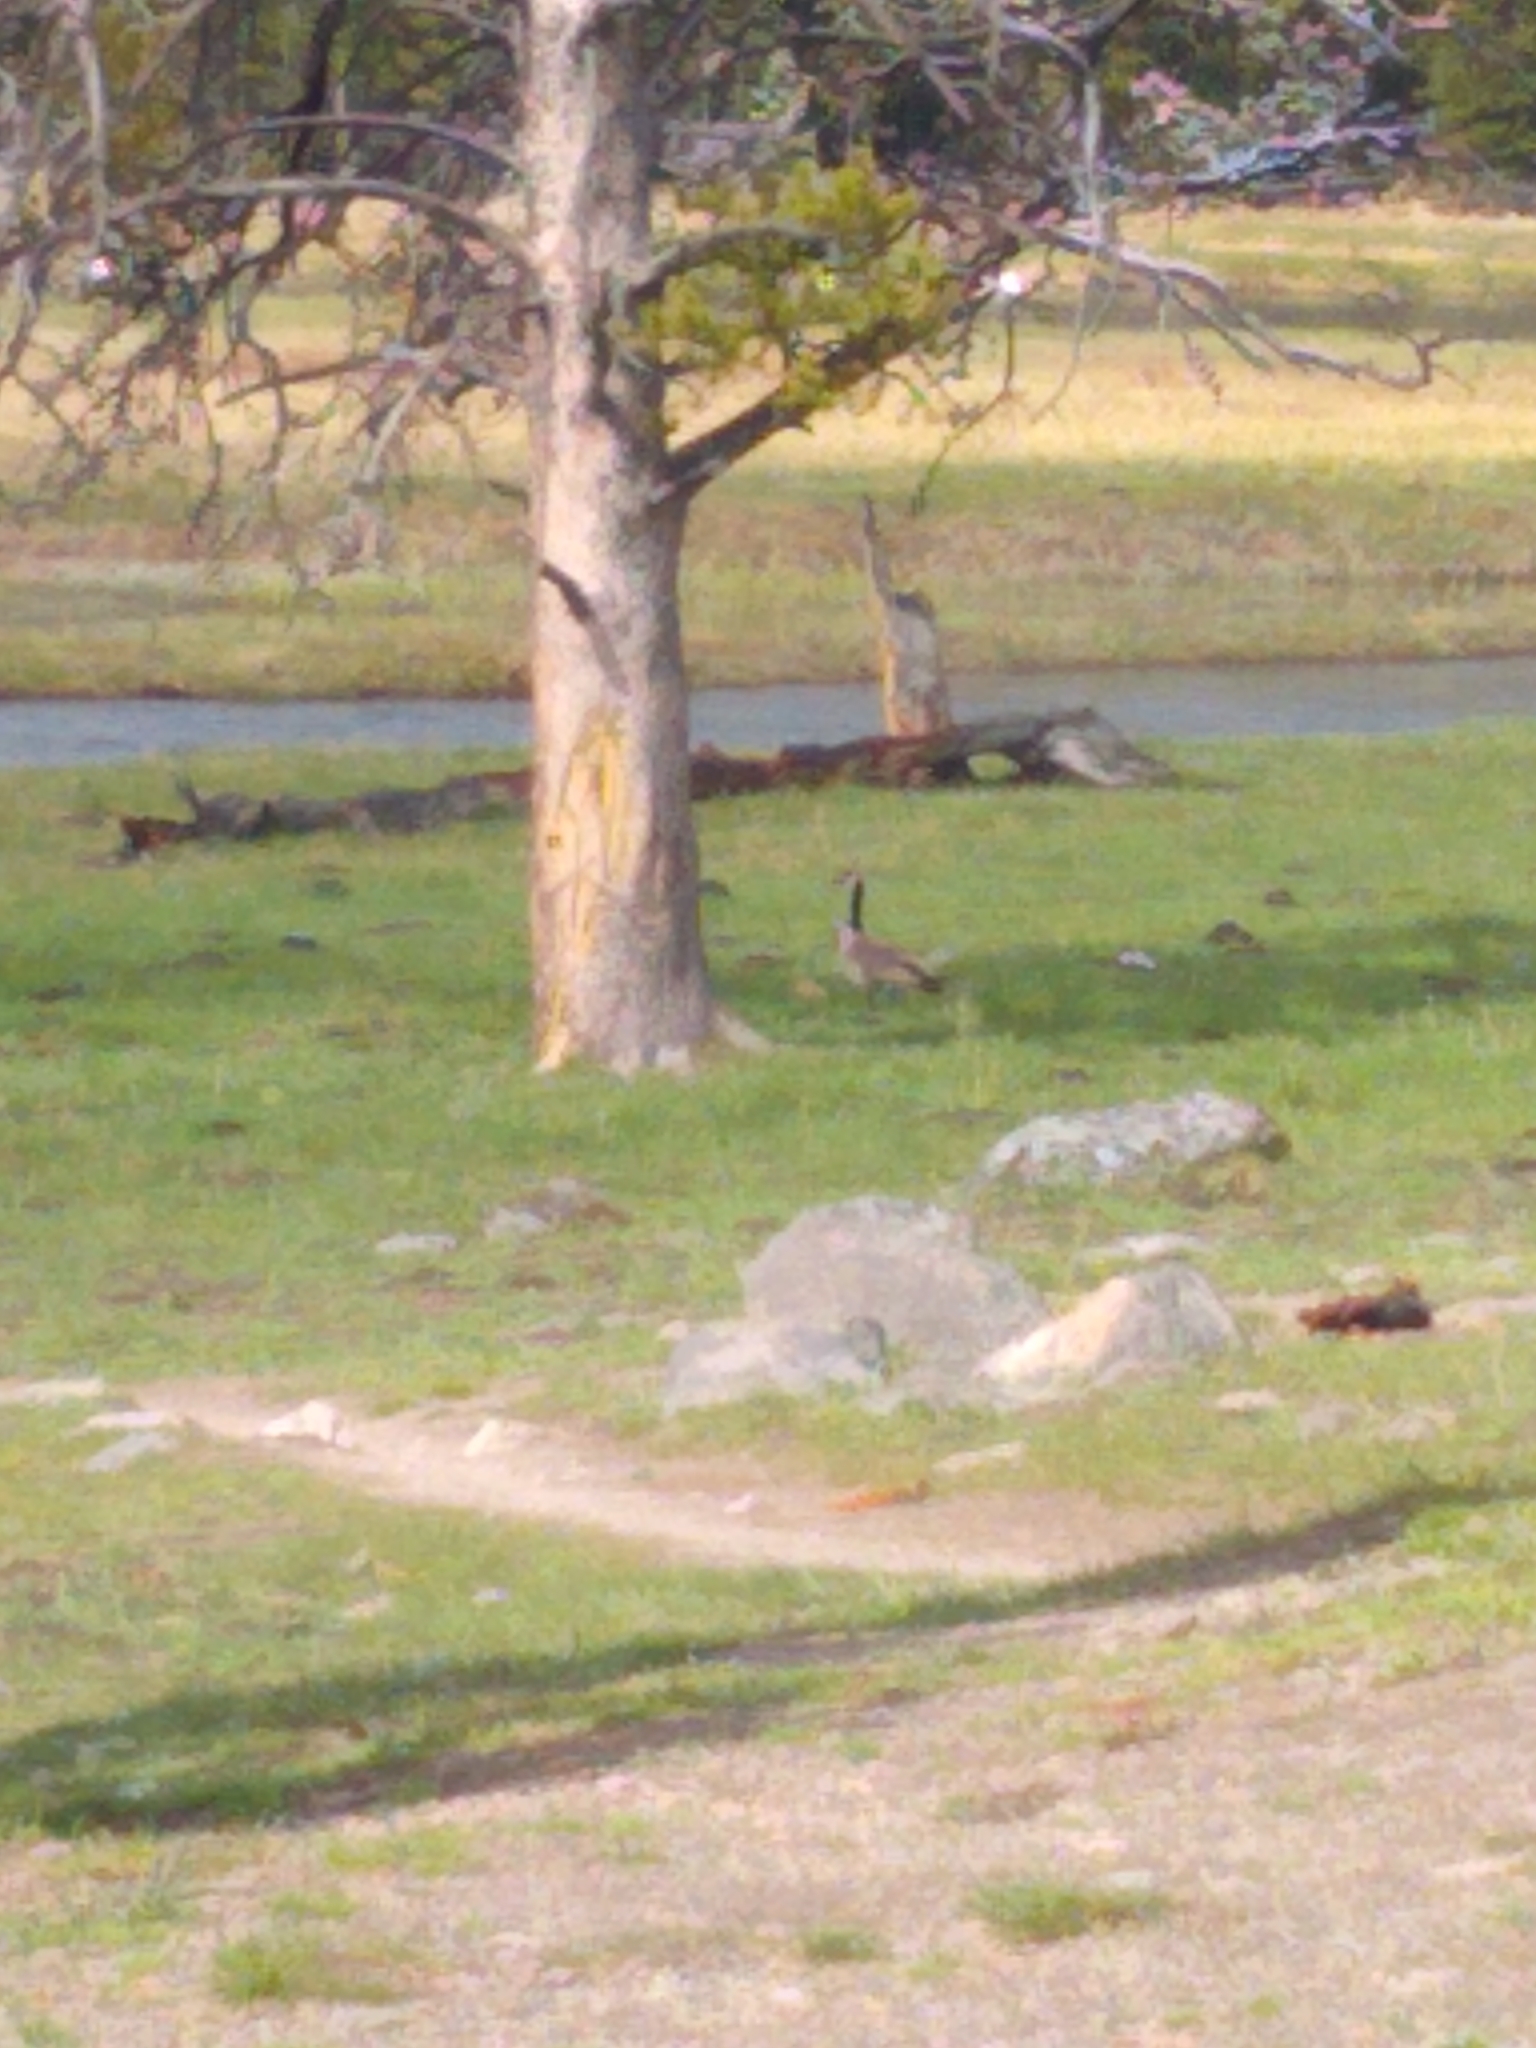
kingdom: Animalia
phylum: Chordata
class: Aves
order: Anseriformes
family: Anatidae
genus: Branta
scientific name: Branta canadensis
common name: Canada goose
